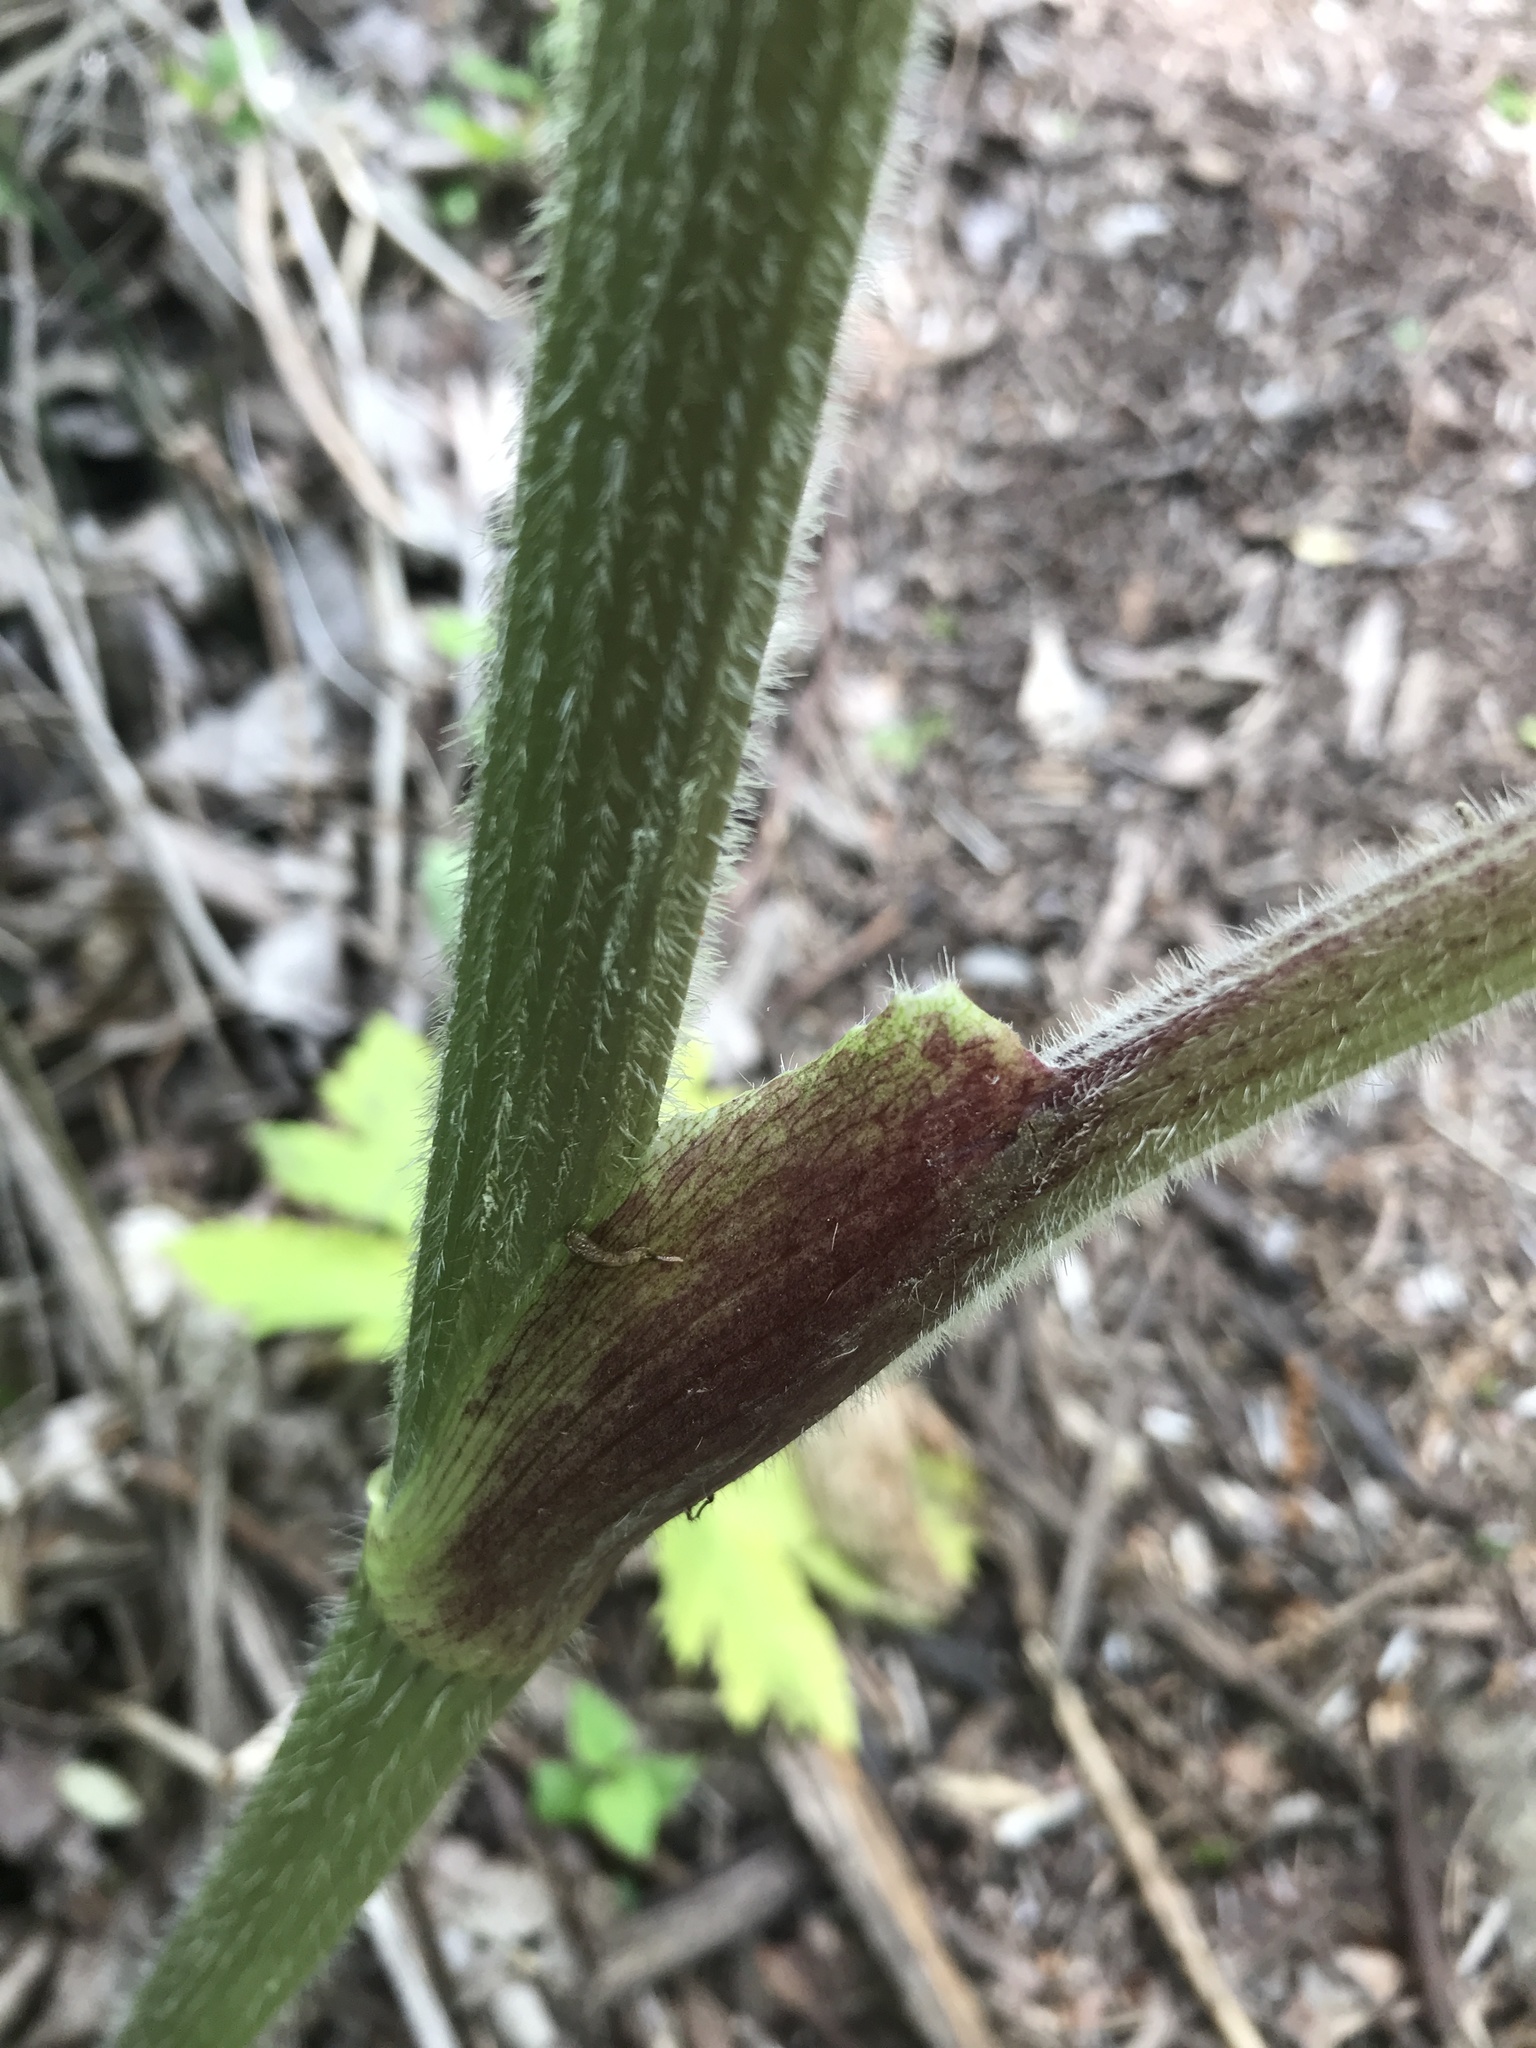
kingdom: Plantae
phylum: Tracheophyta
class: Magnoliopsida
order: Apiales
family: Apiaceae
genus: Heracleum
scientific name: Heracleum maximum
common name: American cow parsnip
